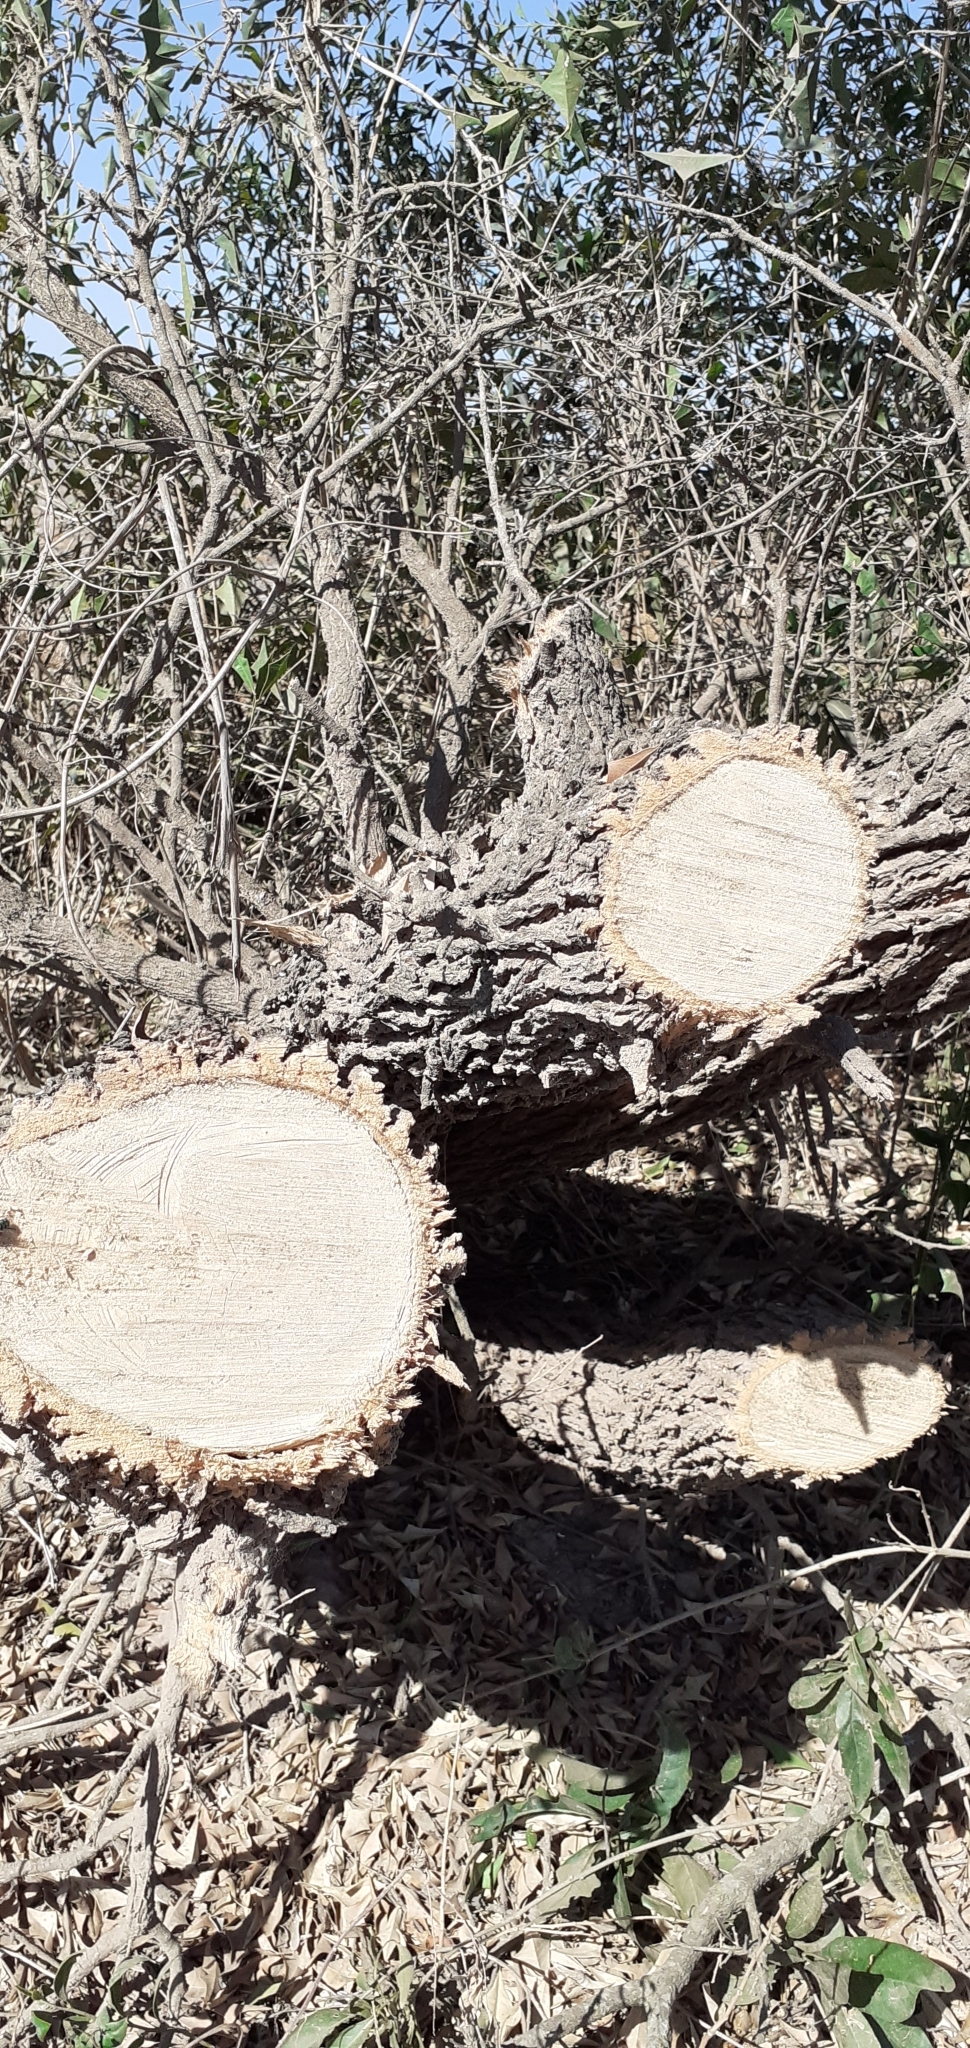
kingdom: Plantae
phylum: Tracheophyta
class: Magnoliopsida
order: Santalales
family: Cervantesiaceae
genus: Jodina
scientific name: Jodina rhombifolia
